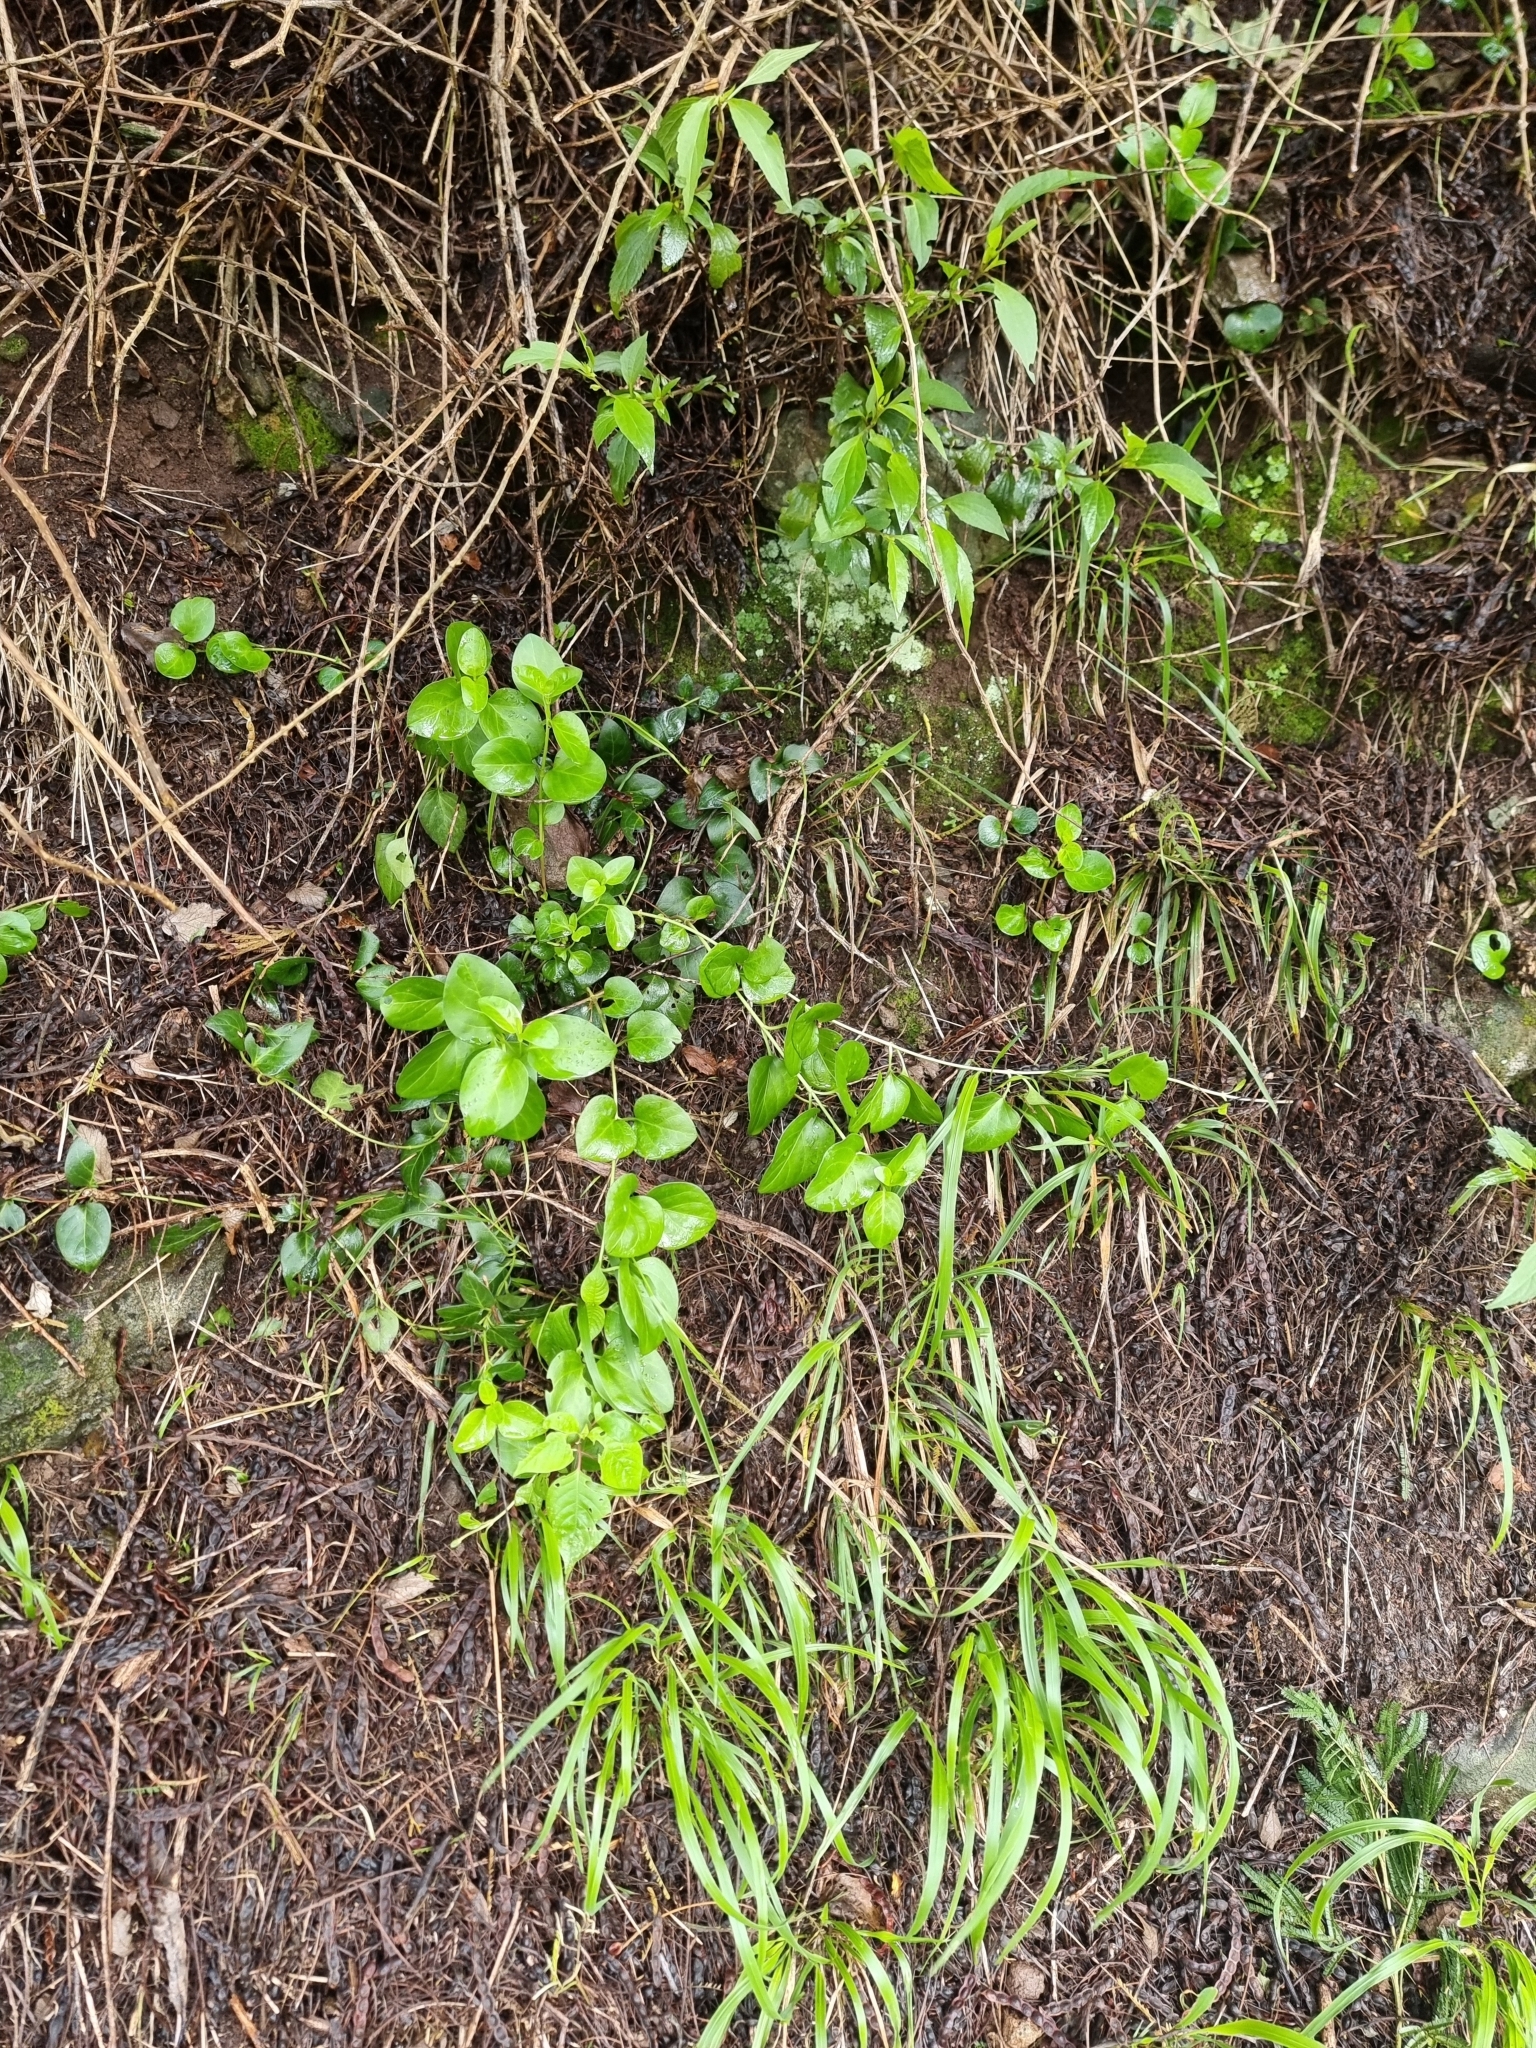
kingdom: Plantae
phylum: Tracheophyta
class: Magnoliopsida
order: Gentianales
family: Apocynaceae
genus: Vinca
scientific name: Vinca major
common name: Greater periwinkle
